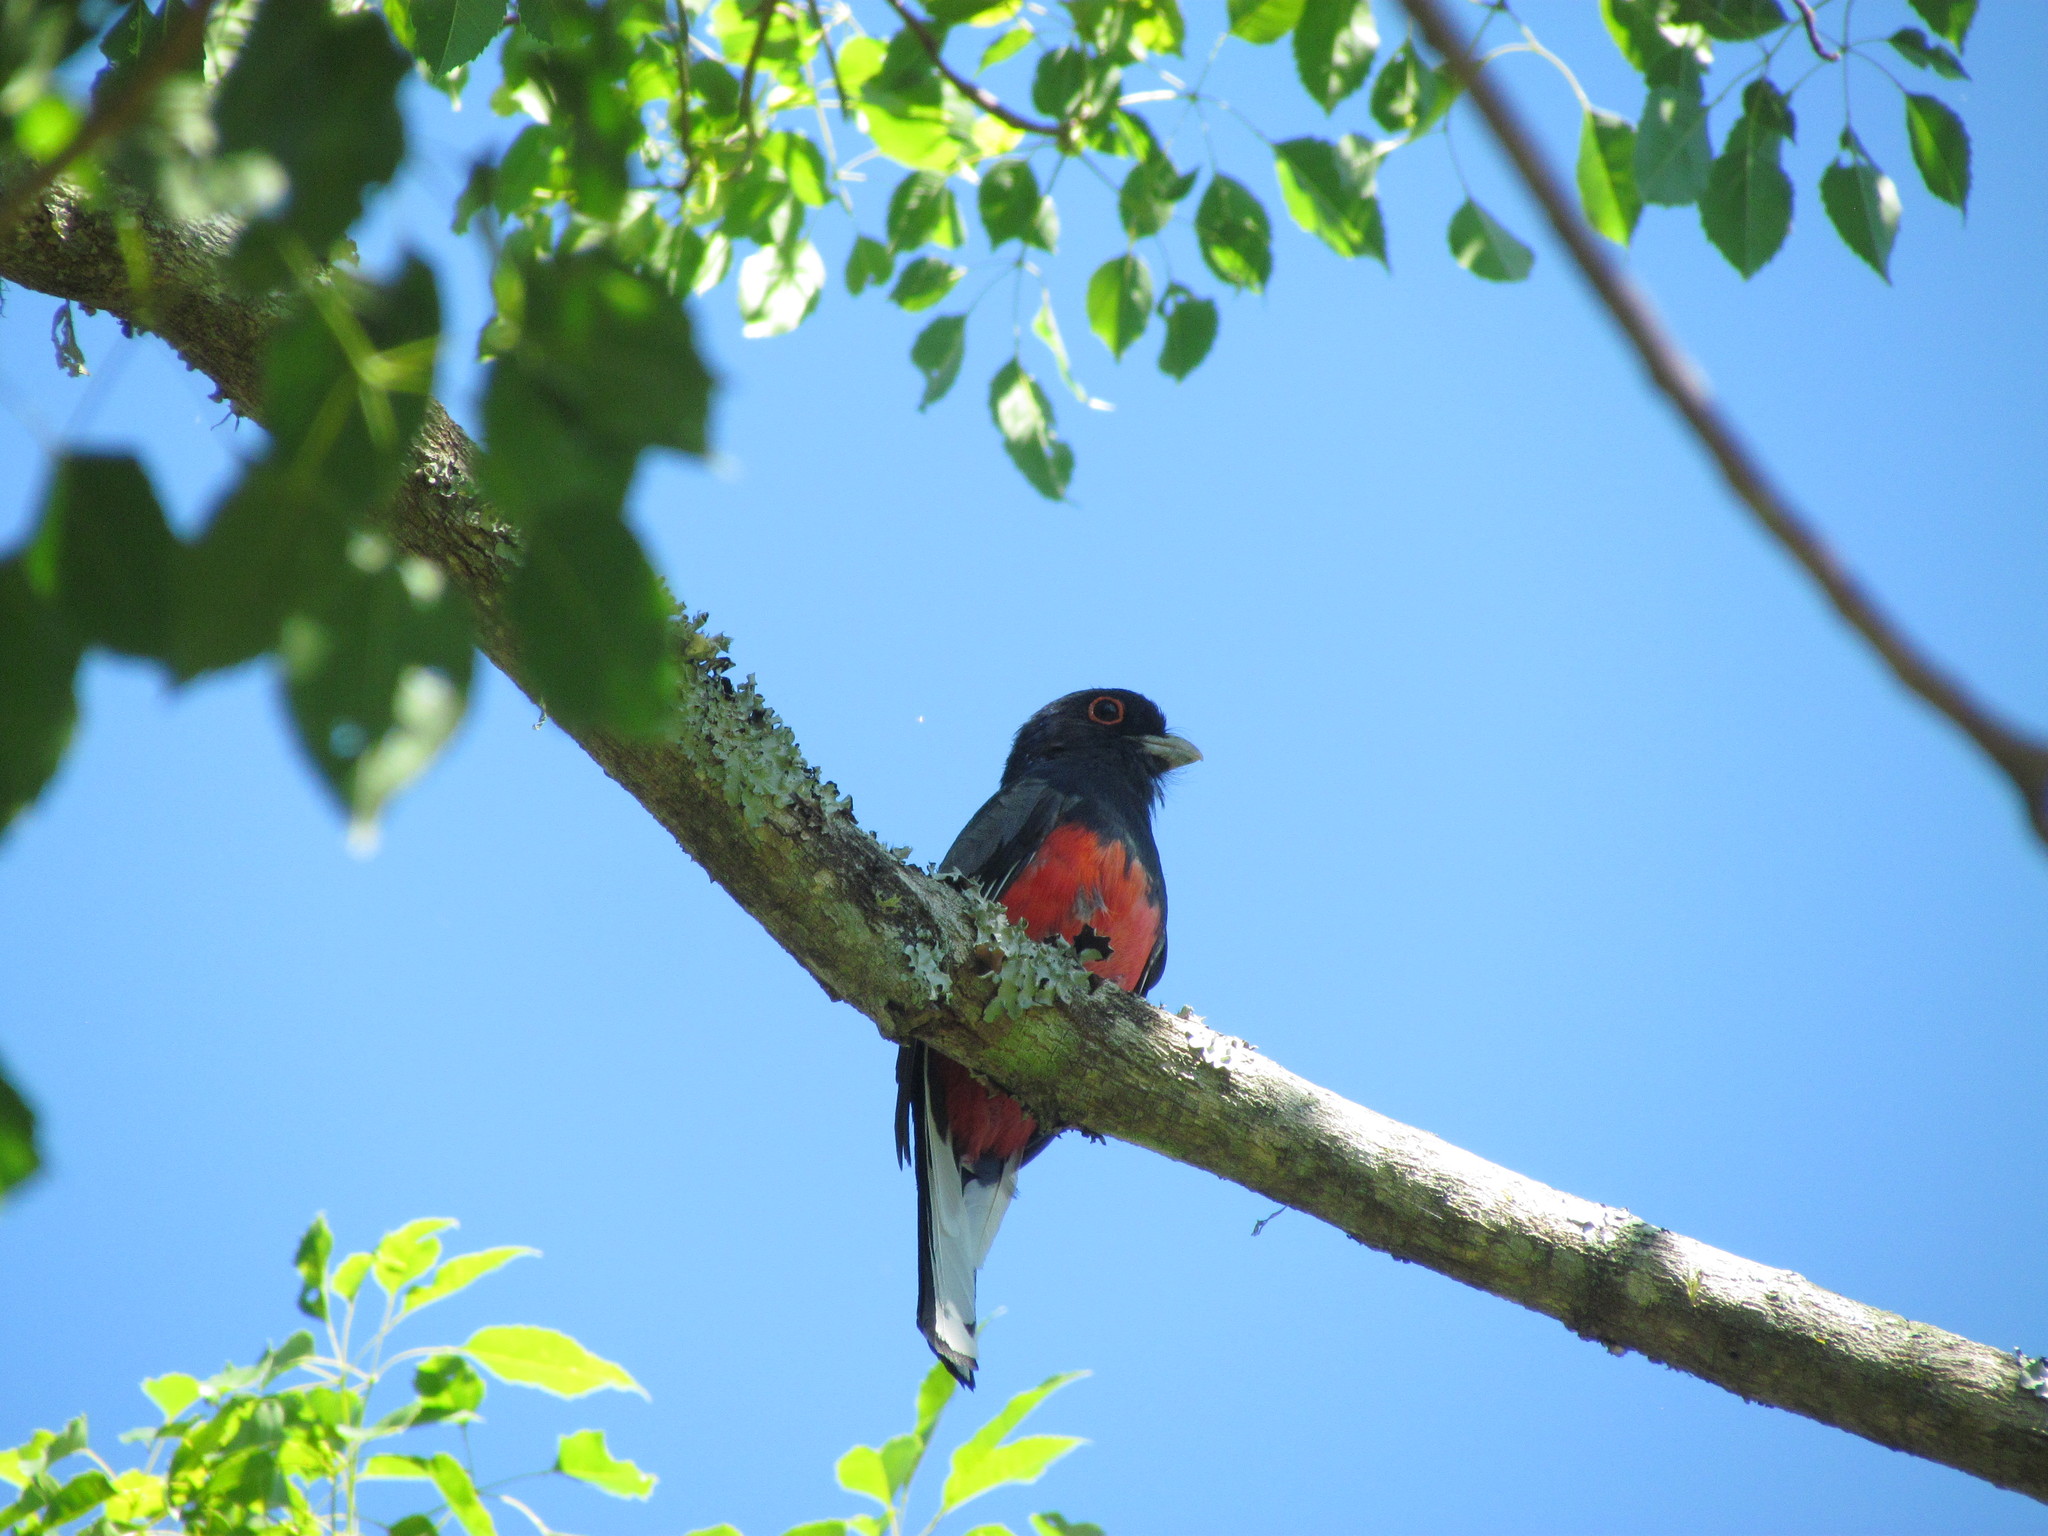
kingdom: Animalia
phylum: Chordata
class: Aves
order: Trogoniformes
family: Trogonidae
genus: Trogon
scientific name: Trogon surrucura
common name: Surucua trogon
